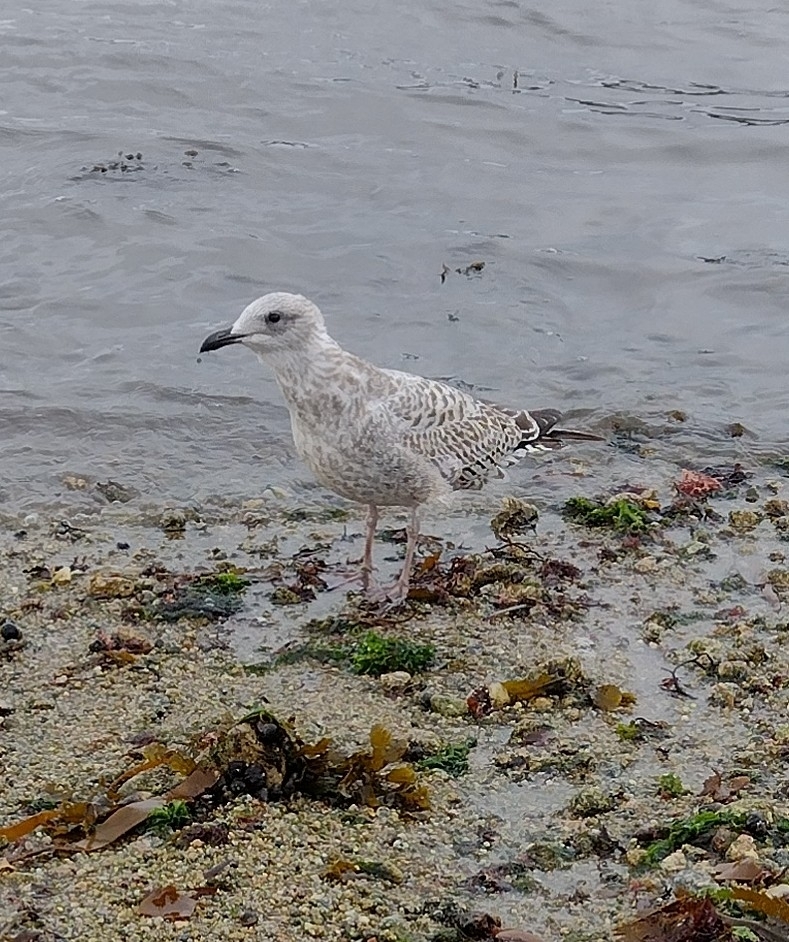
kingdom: Animalia
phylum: Chordata
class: Aves
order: Charadriiformes
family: Laridae
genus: Larus
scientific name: Larus argentatus
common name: Herring gull
